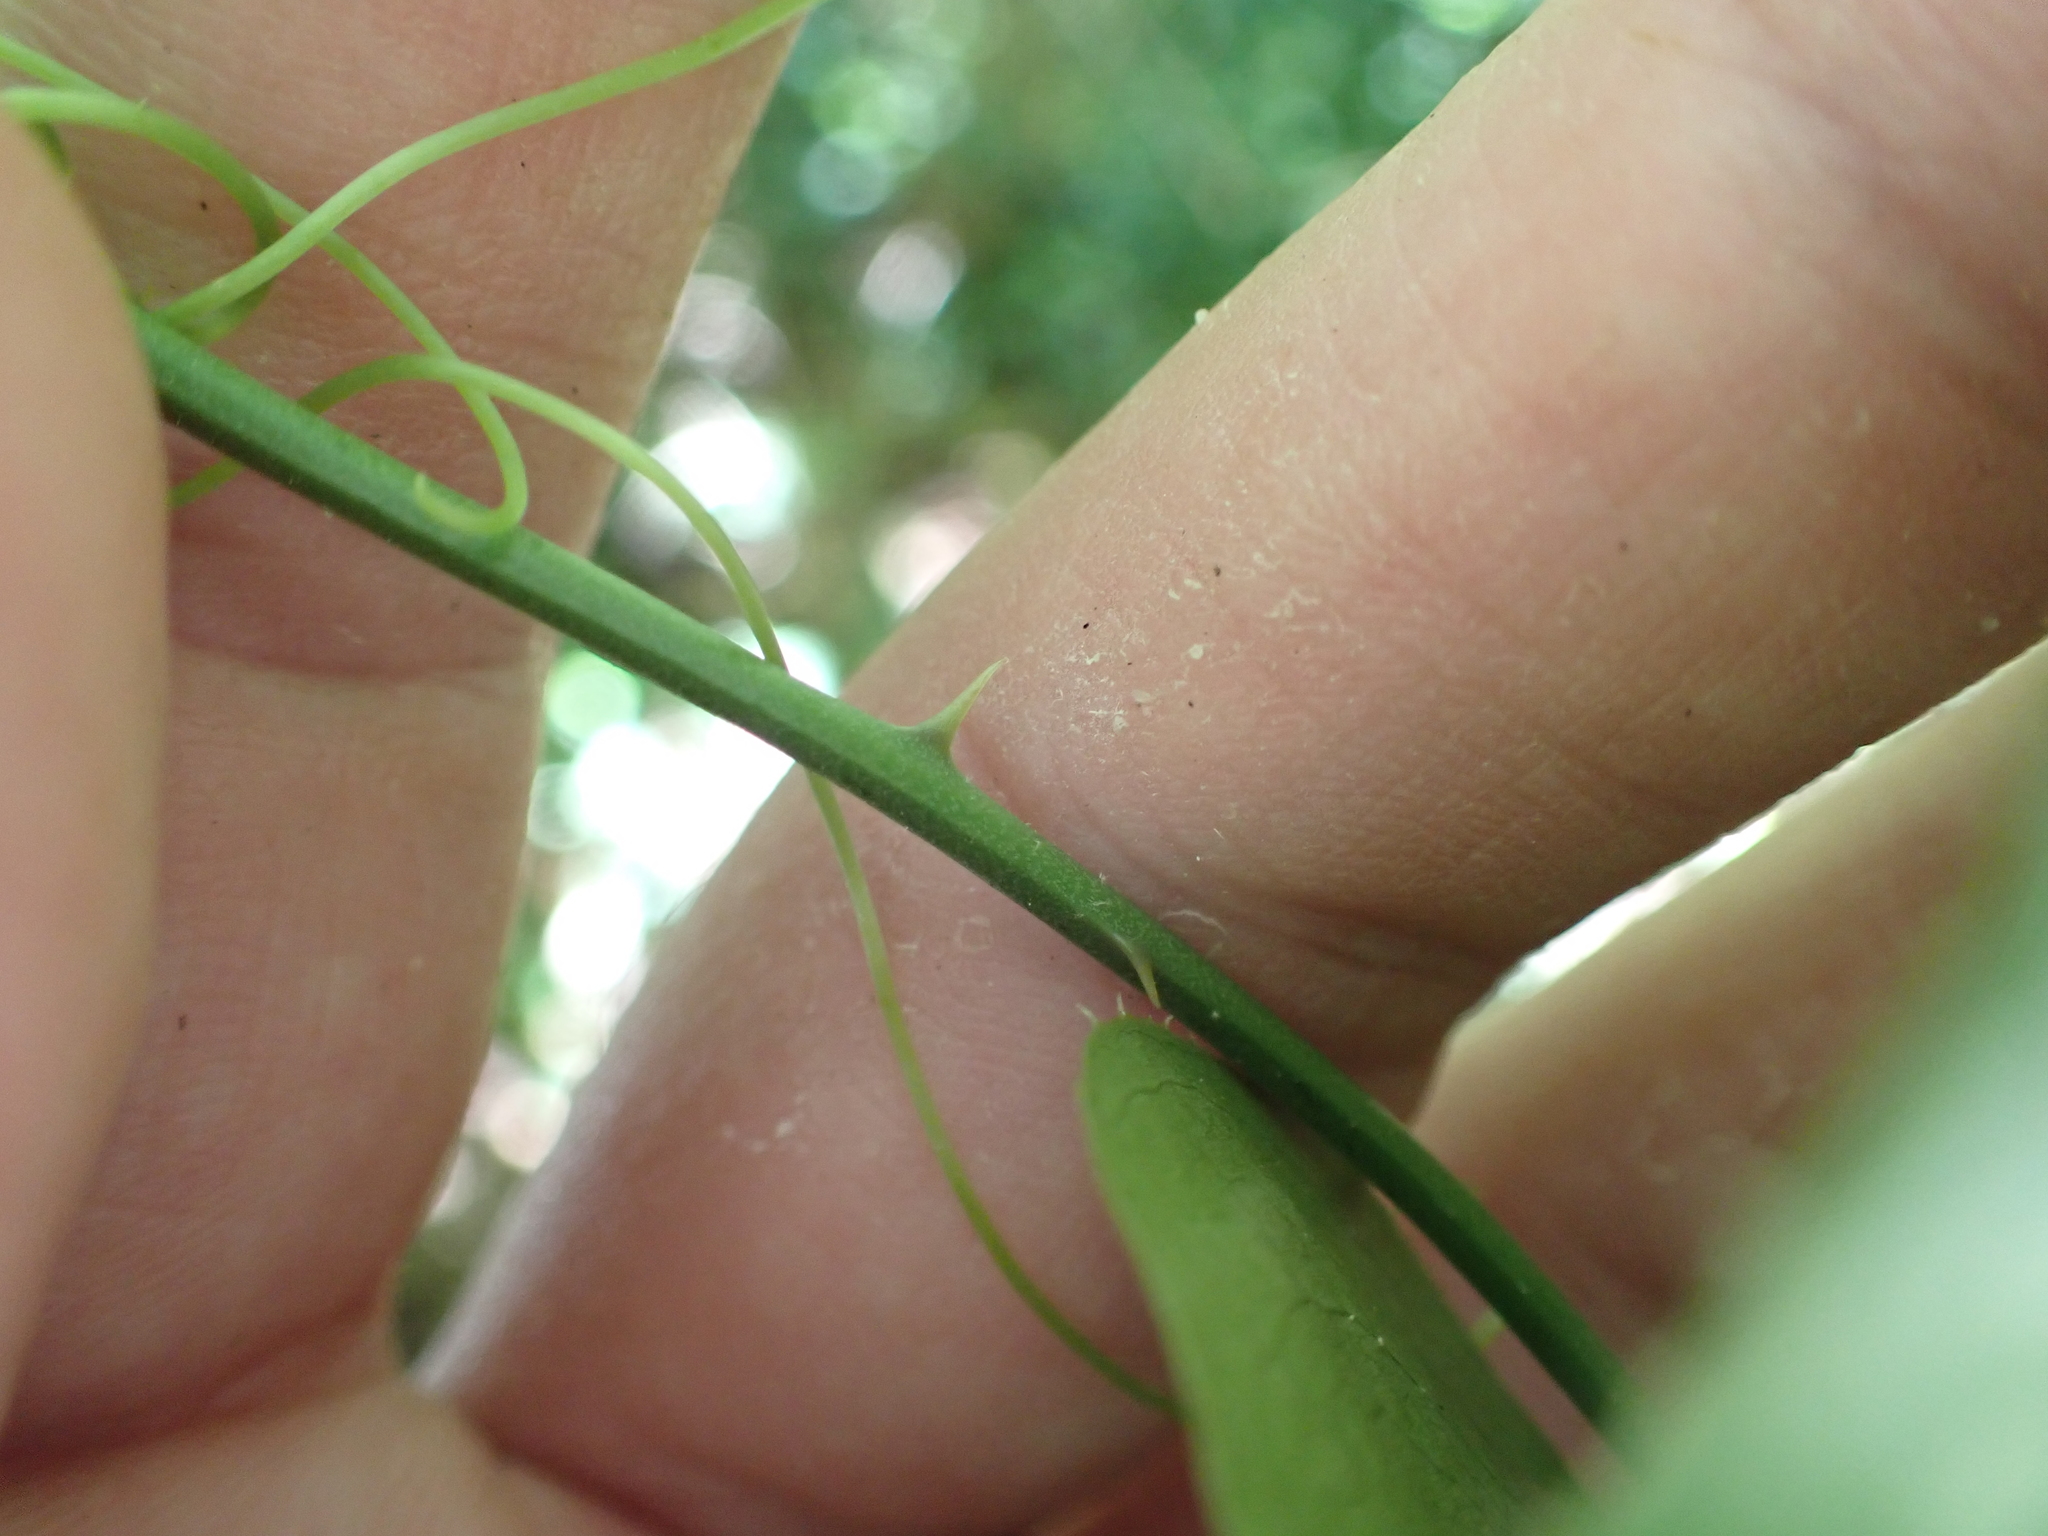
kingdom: Plantae
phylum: Tracheophyta
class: Liliopsida
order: Liliales
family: Smilacaceae
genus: Smilax
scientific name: Smilax bona-nox
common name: Catbrier
